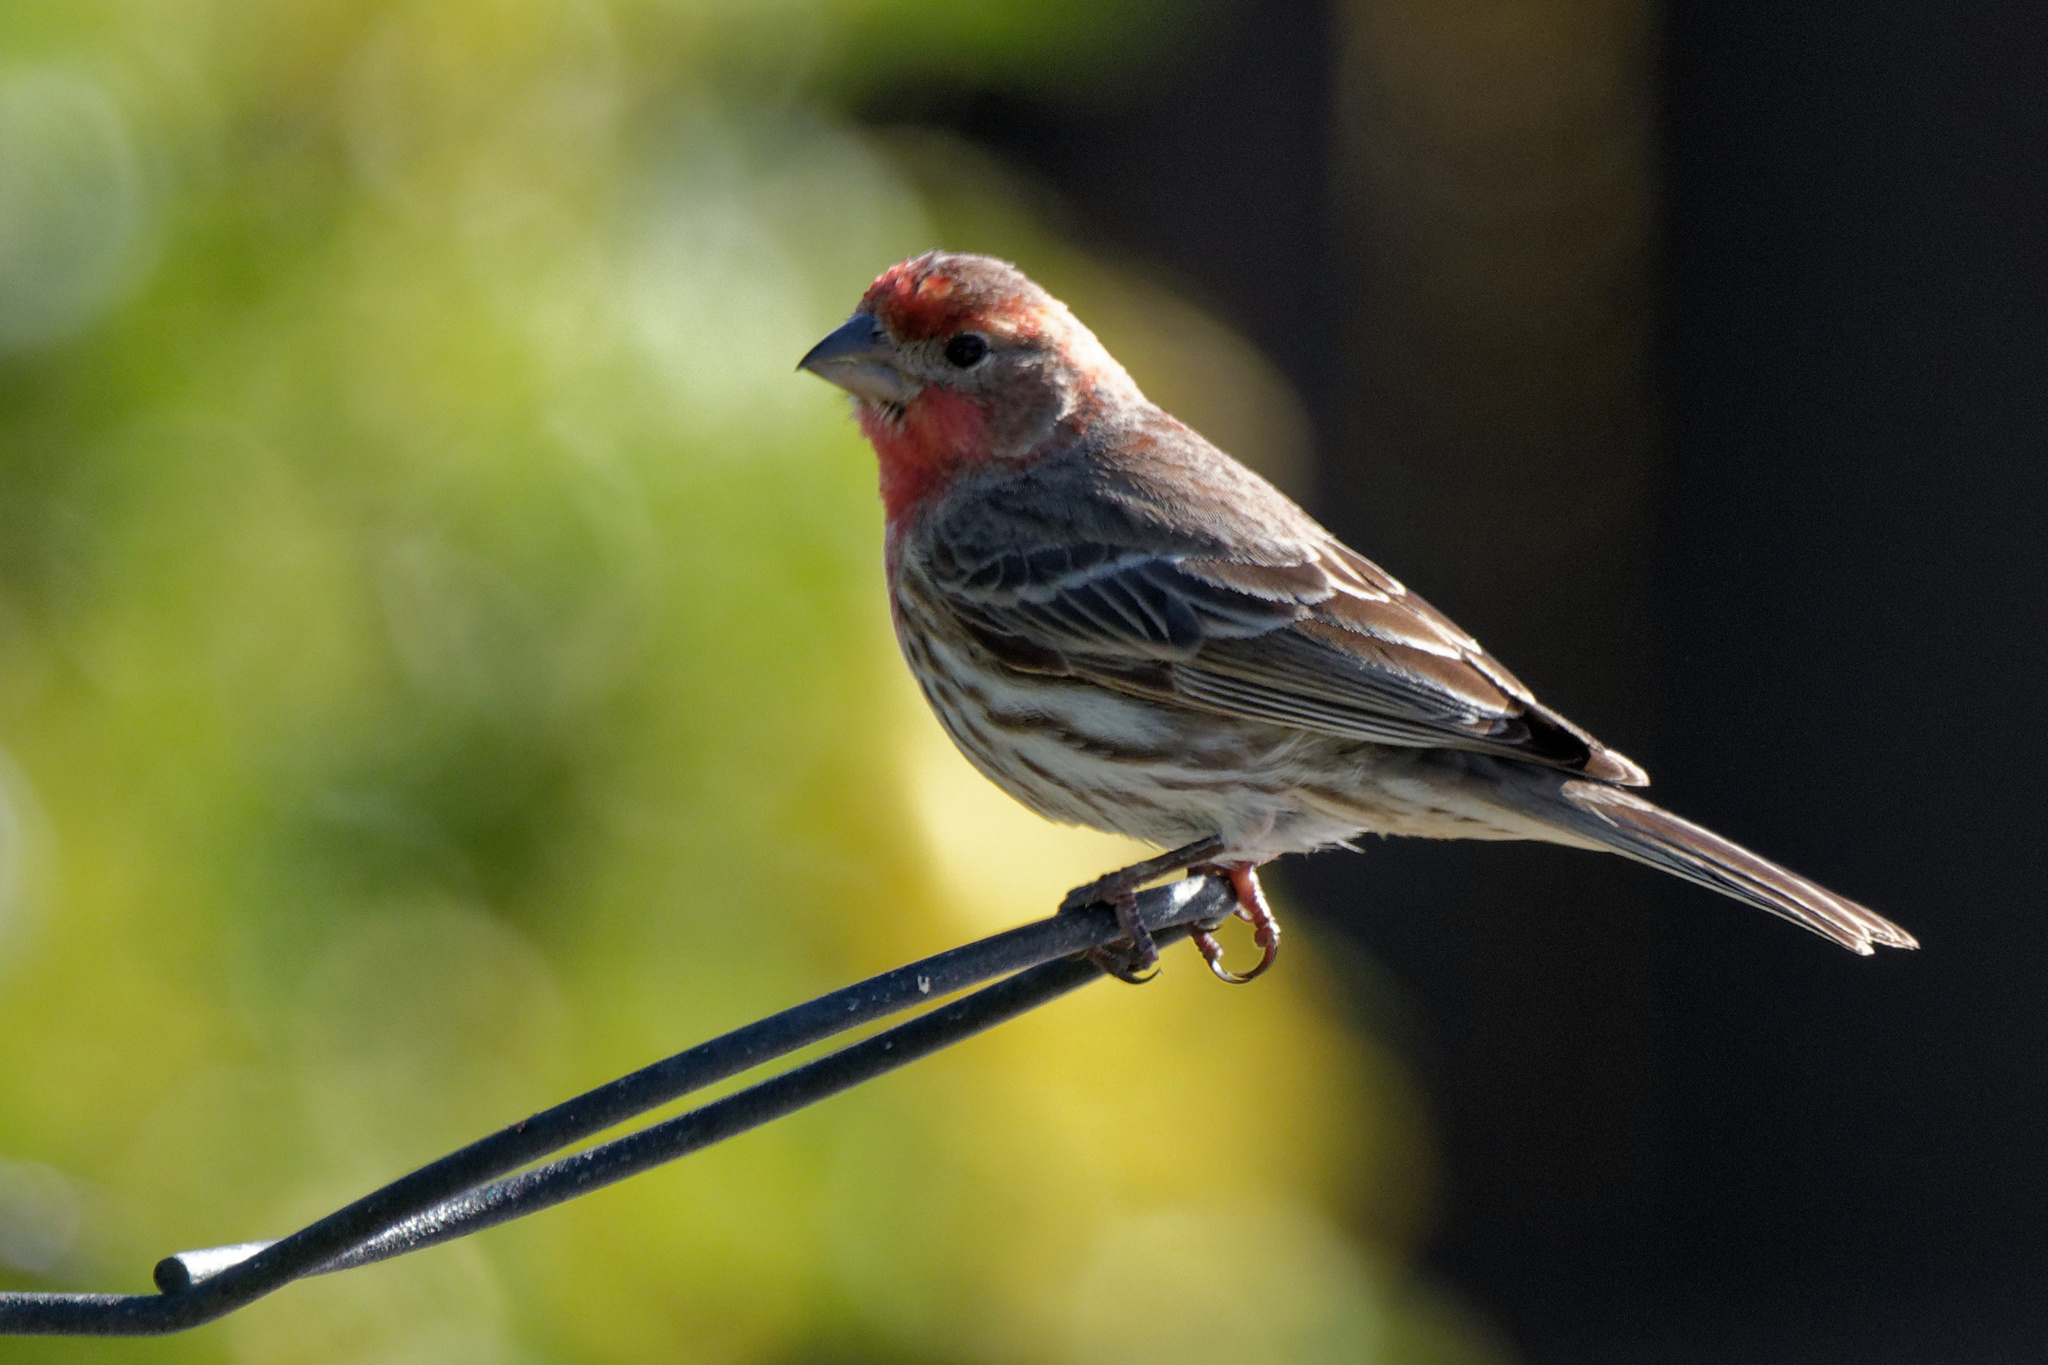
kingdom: Animalia
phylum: Chordata
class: Aves
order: Passeriformes
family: Fringillidae
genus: Haemorhous
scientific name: Haemorhous mexicanus
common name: House finch
